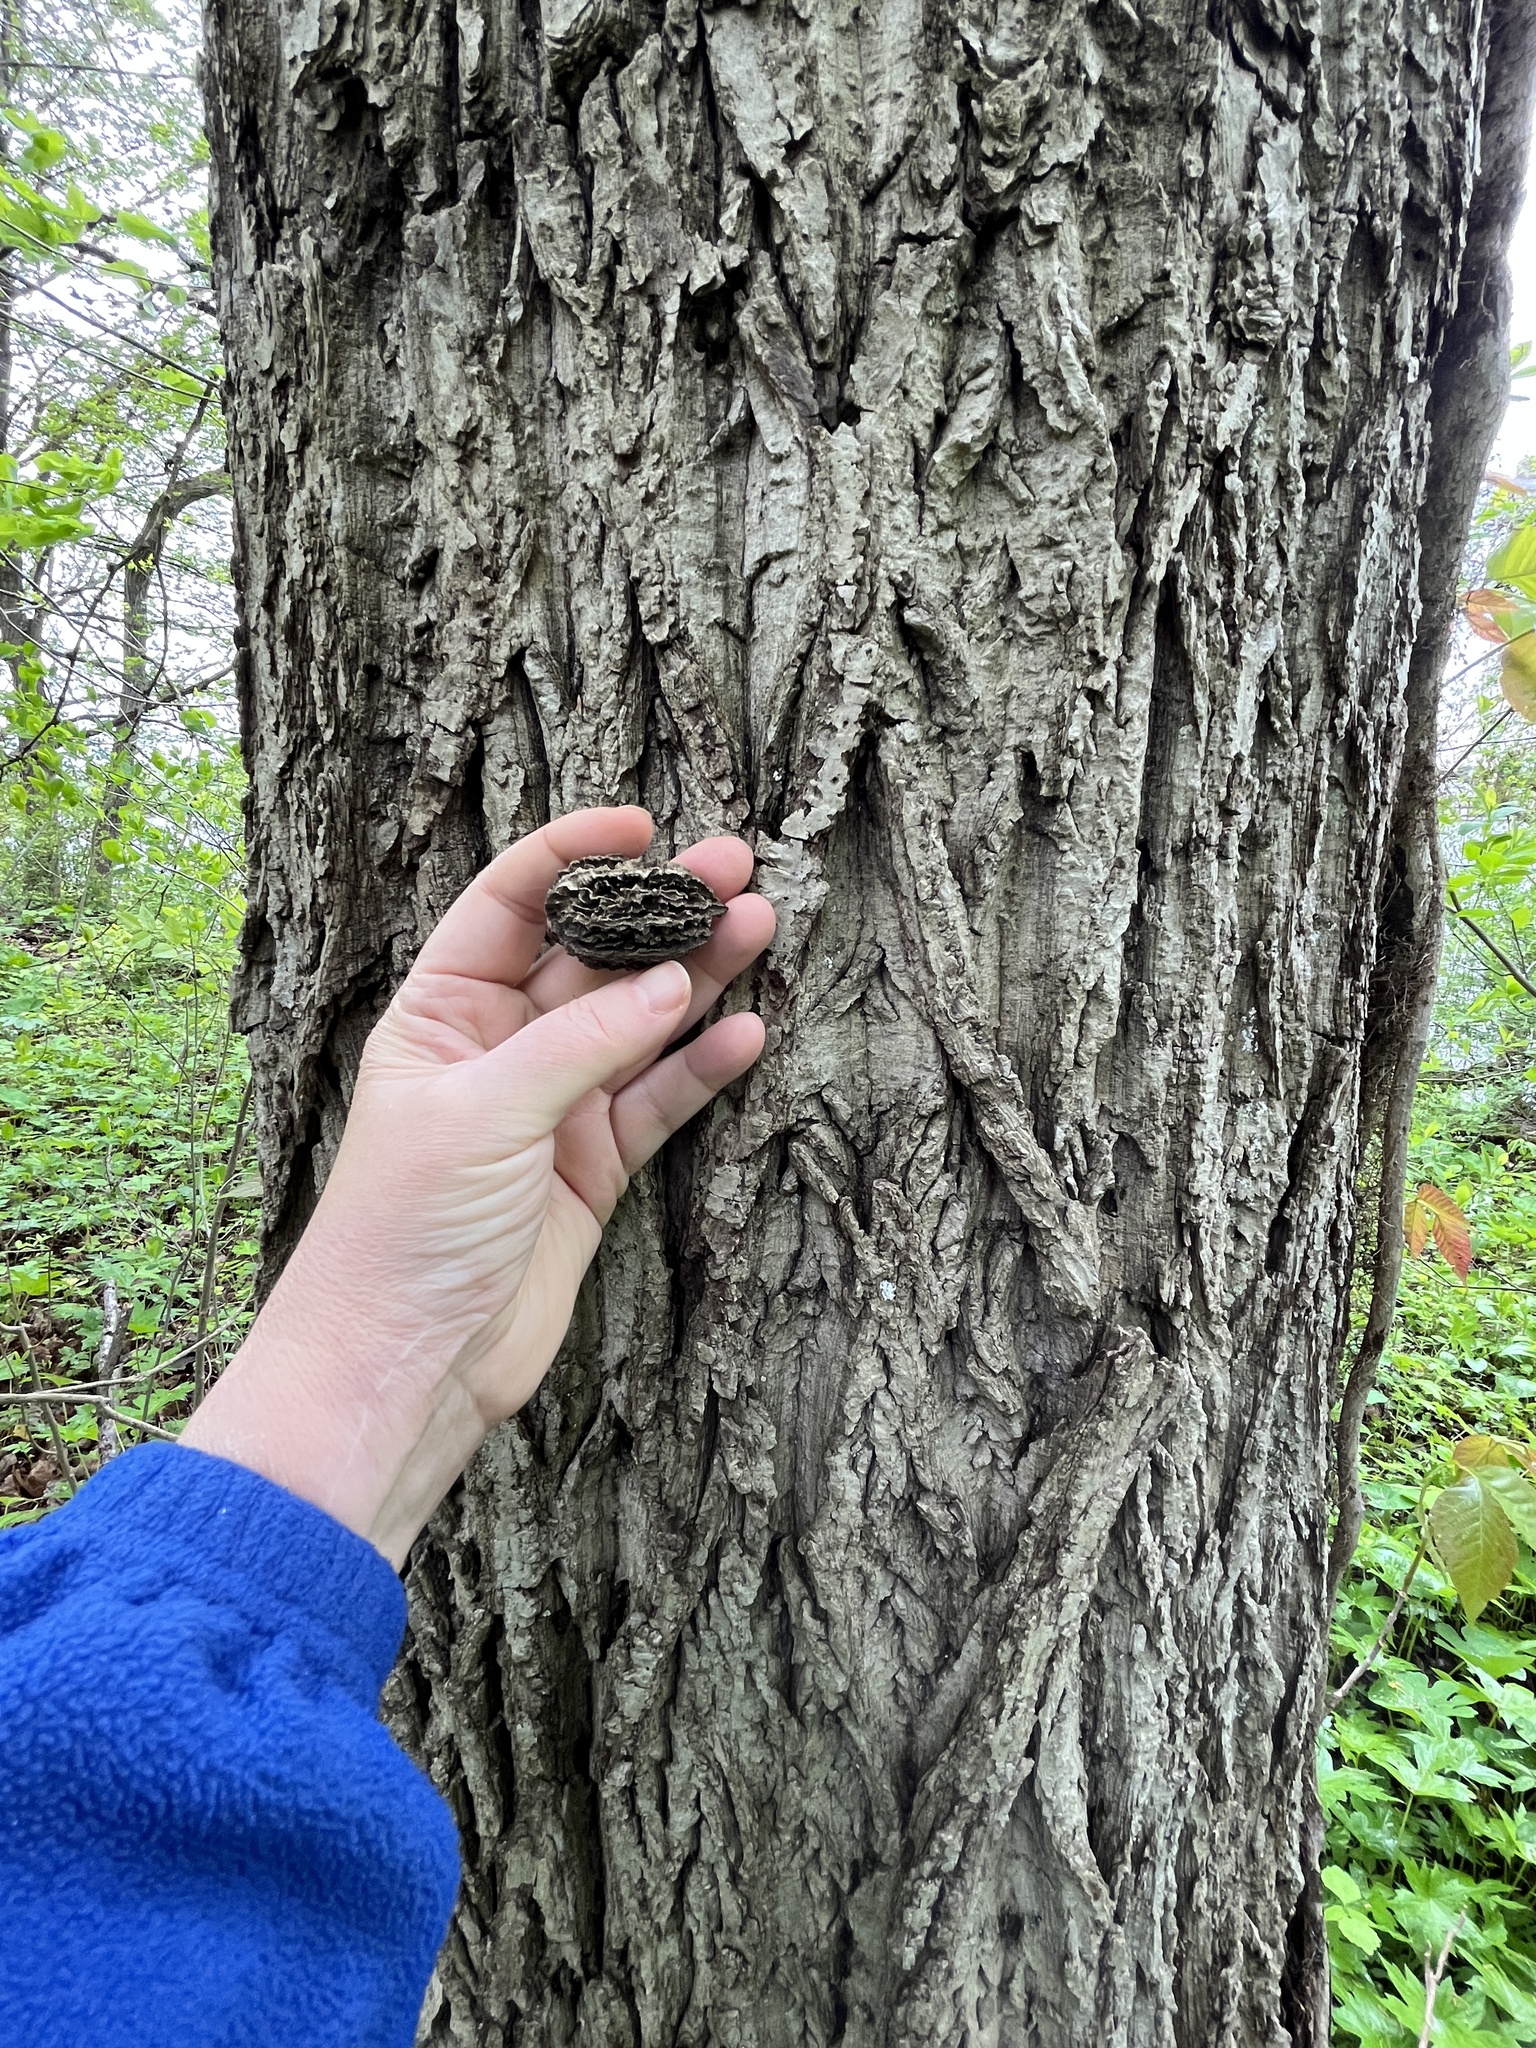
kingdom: Plantae
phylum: Tracheophyta
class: Magnoliopsida
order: Fagales
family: Juglandaceae
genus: Juglans
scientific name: Juglans cinerea
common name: Butternut
